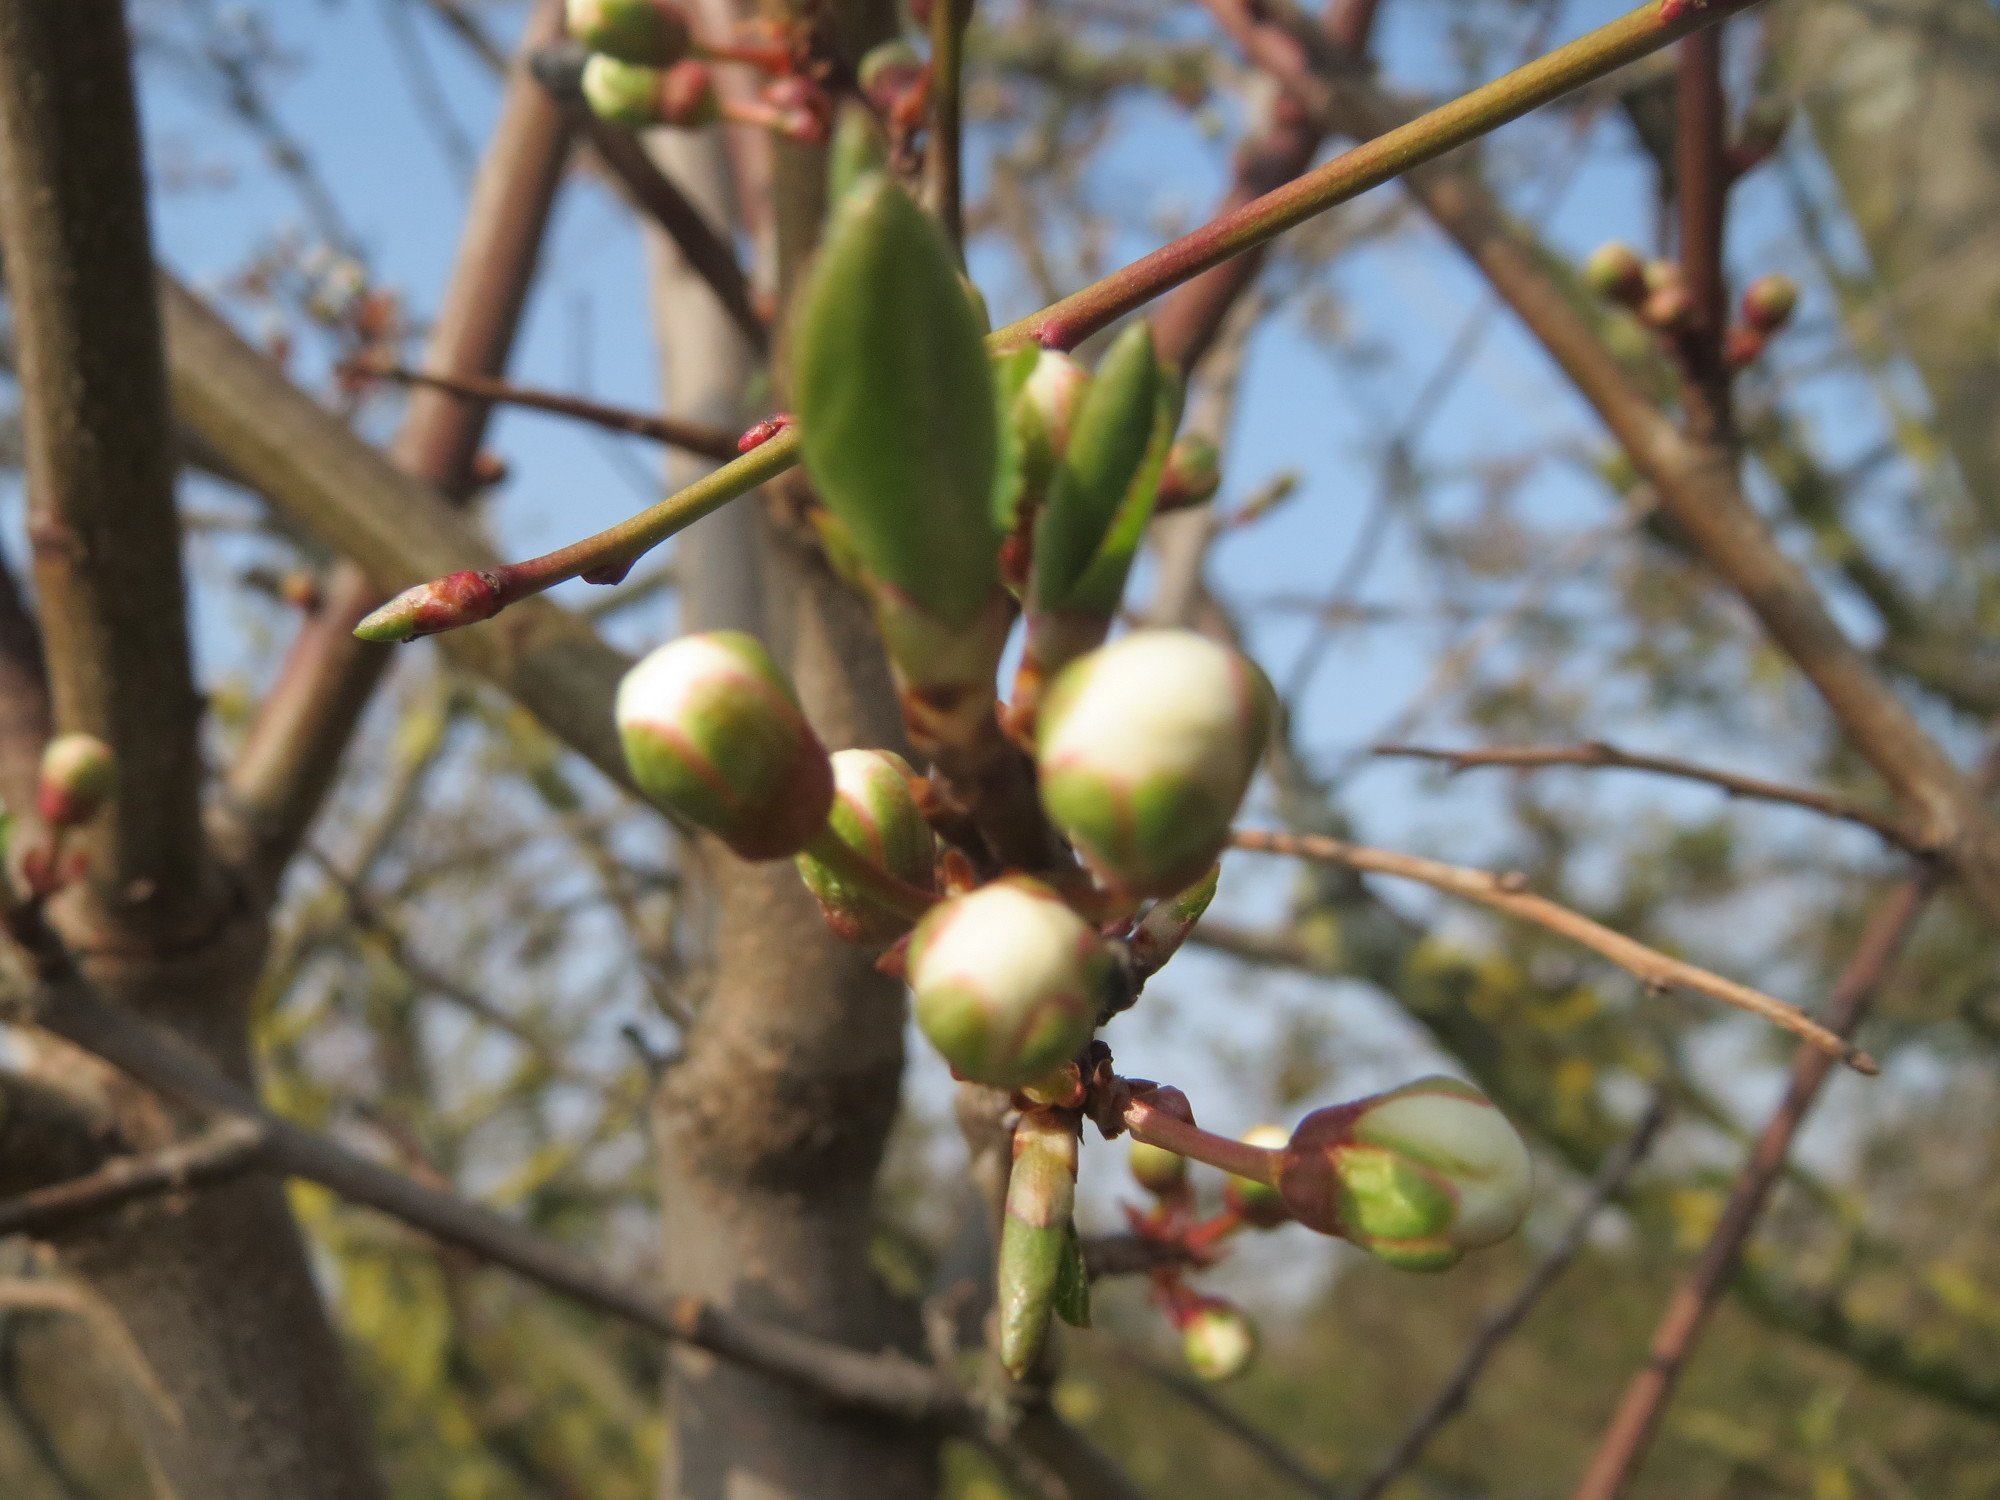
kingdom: Plantae
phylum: Tracheophyta
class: Magnoliopsida
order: Rosales
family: Rosaceae
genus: Prunus
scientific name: Prunus cerasifera
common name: Cherry plum
